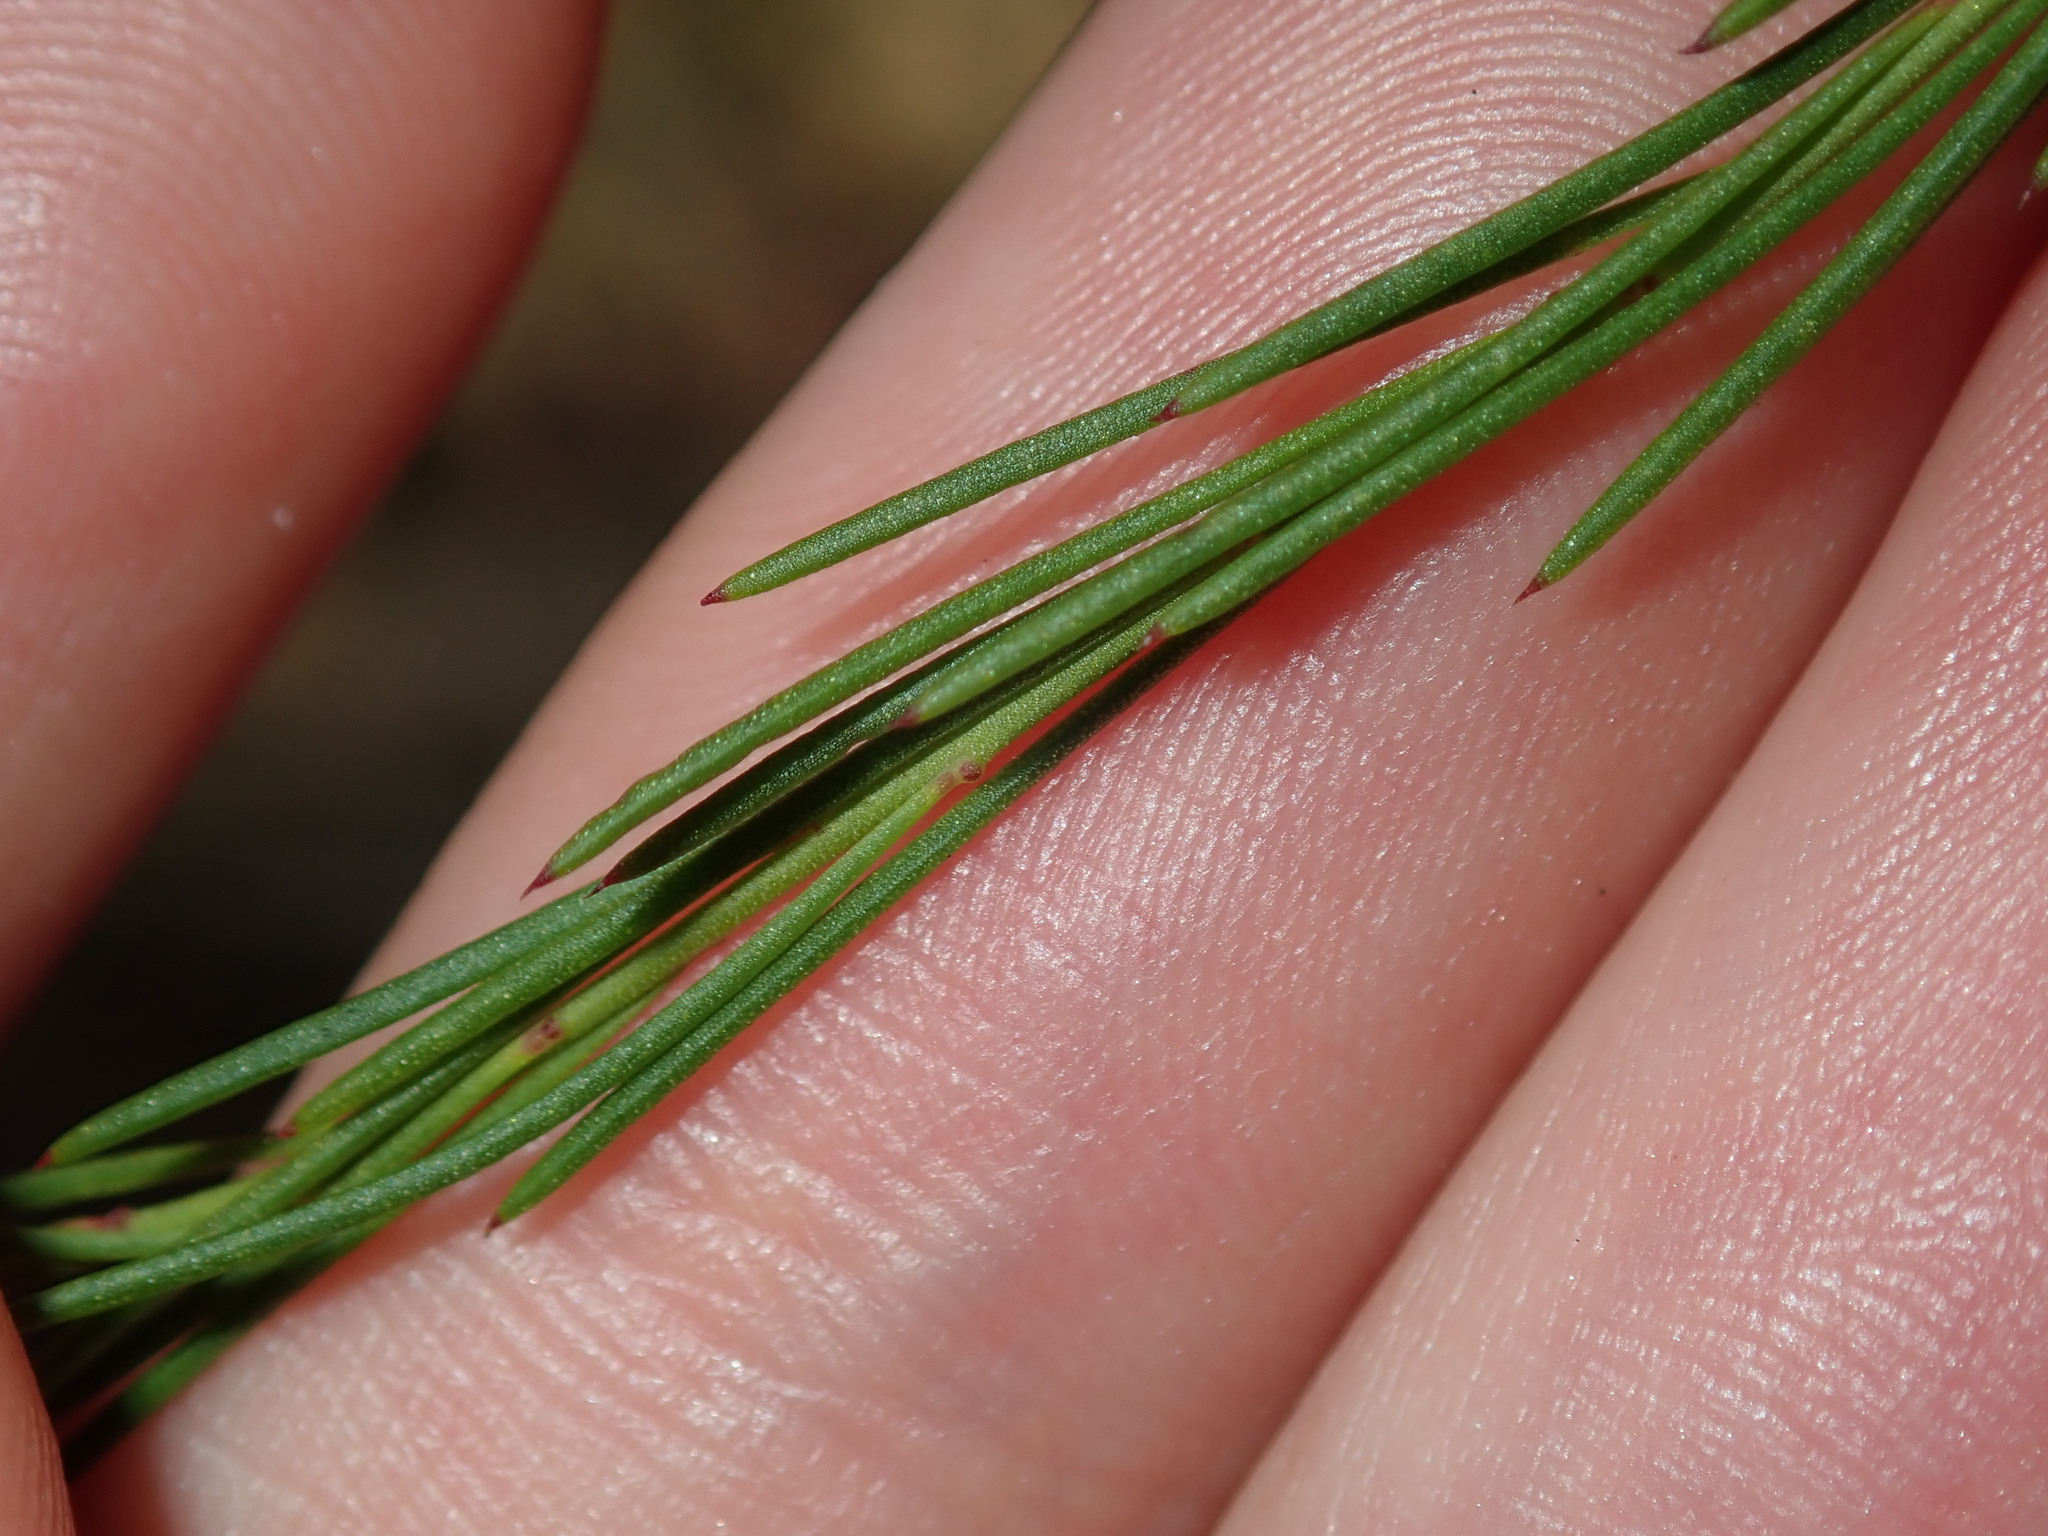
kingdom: Plantae
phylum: Tracheophyta
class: Magnoliopsida
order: Apiales
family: Apiaceae
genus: Platysace
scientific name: Platysace linearifolia
